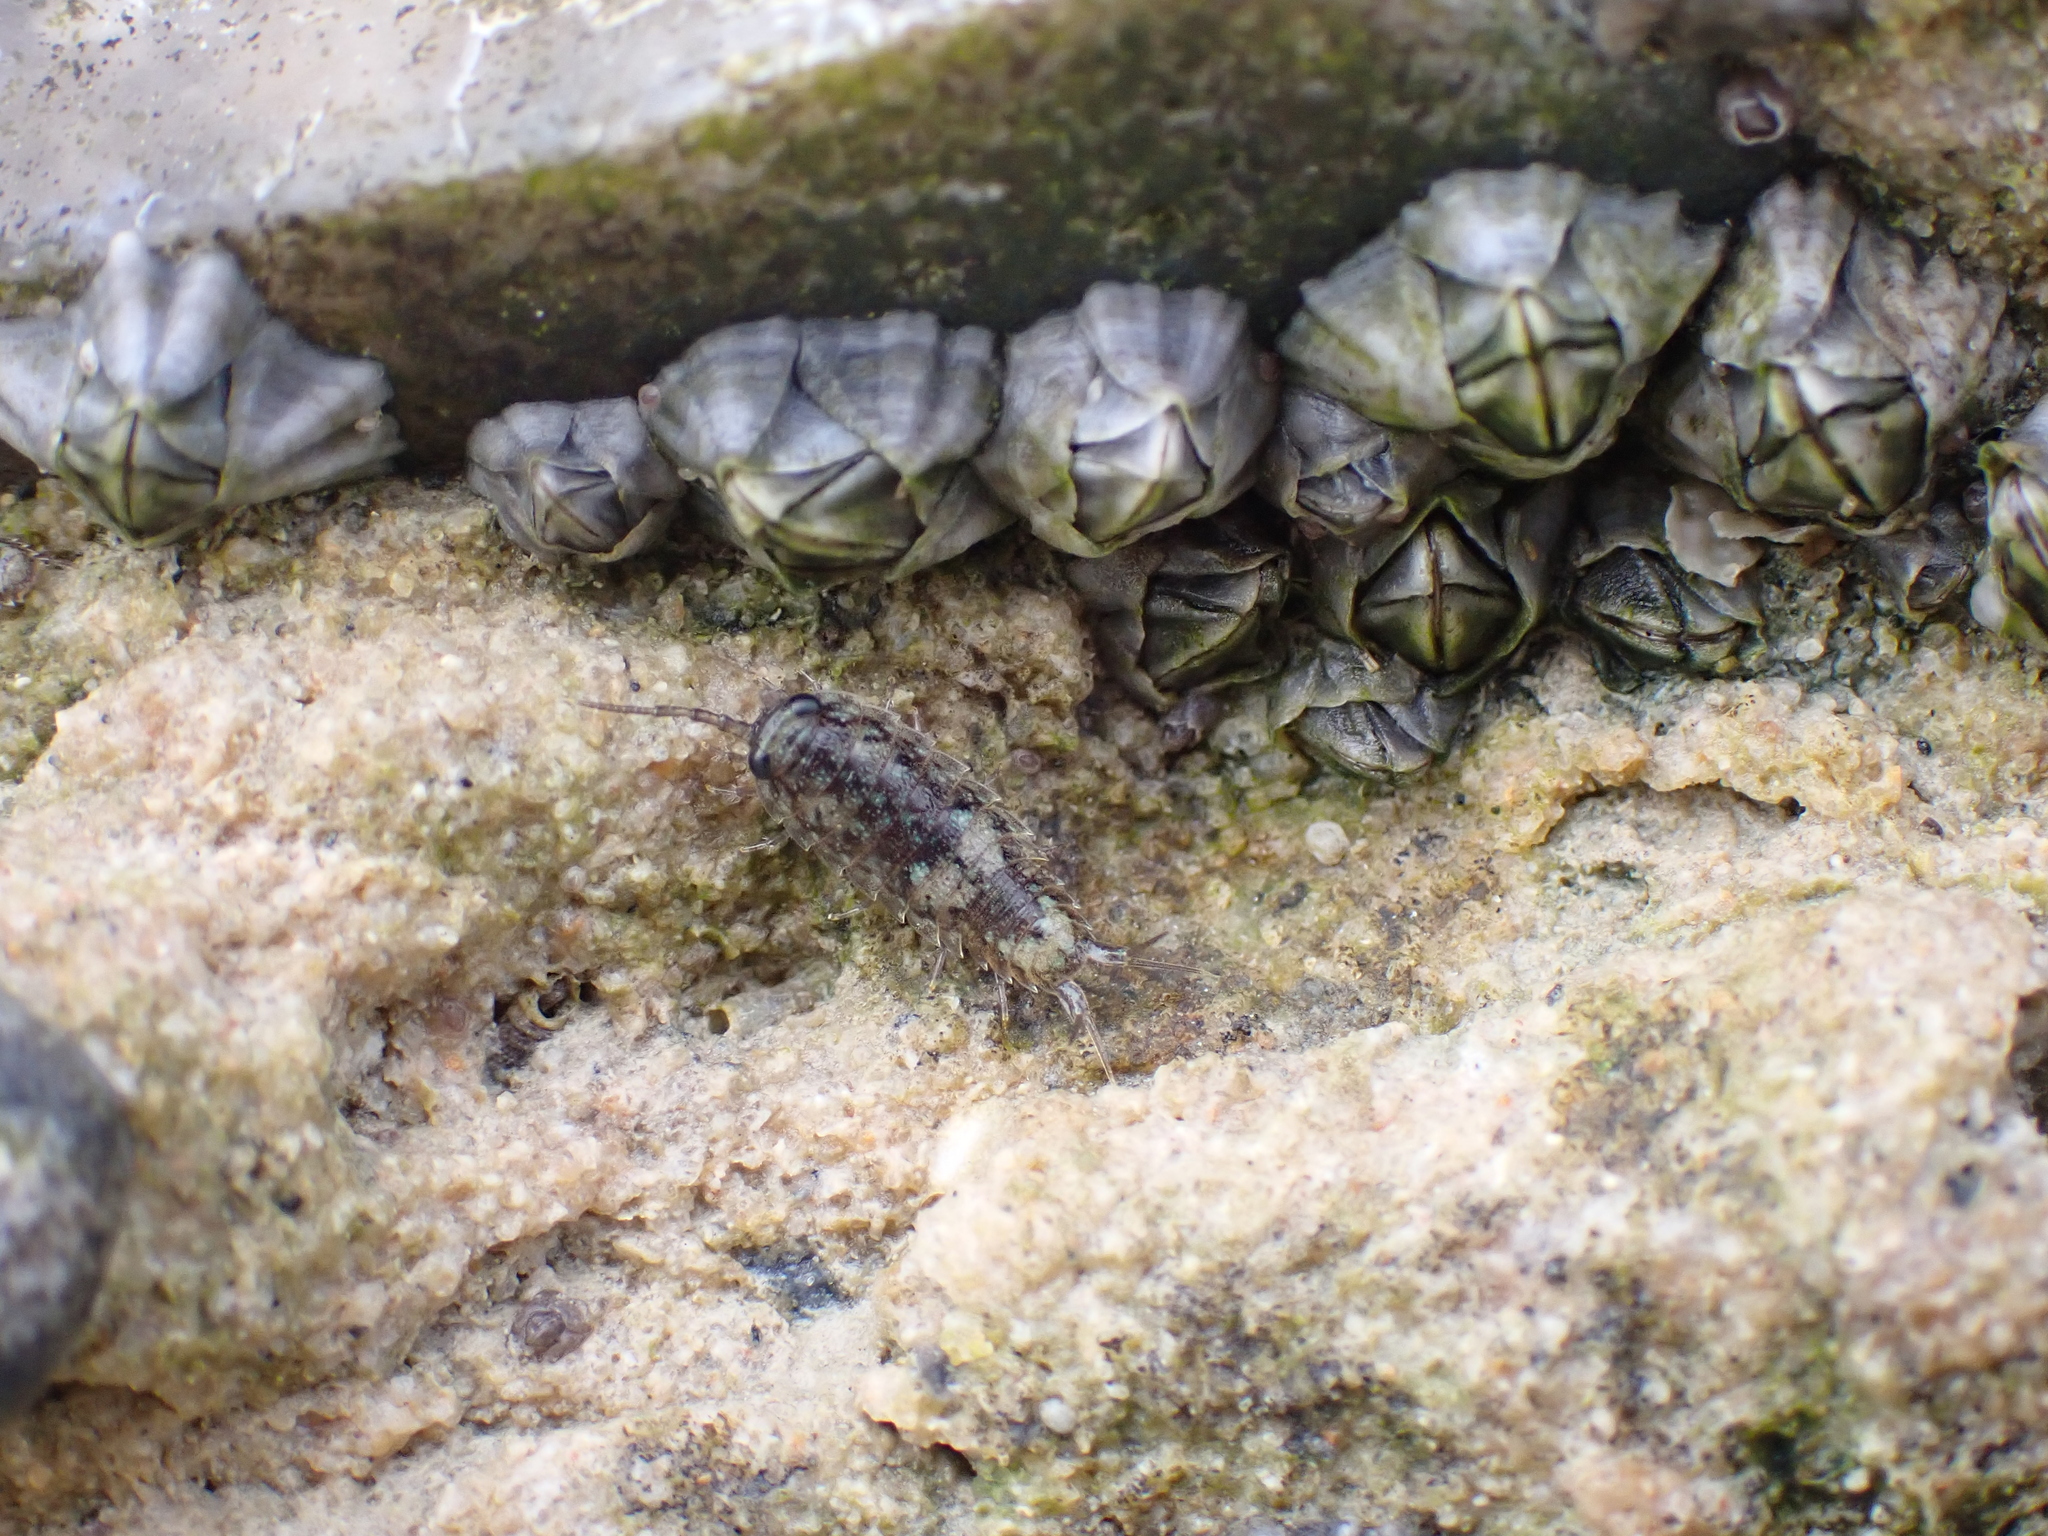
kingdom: Animalia
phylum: Arthropoda
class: Malacostraca
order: Isopoda
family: Ligiidae
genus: Ligia
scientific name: Ligia oceanica
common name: Sea slater
